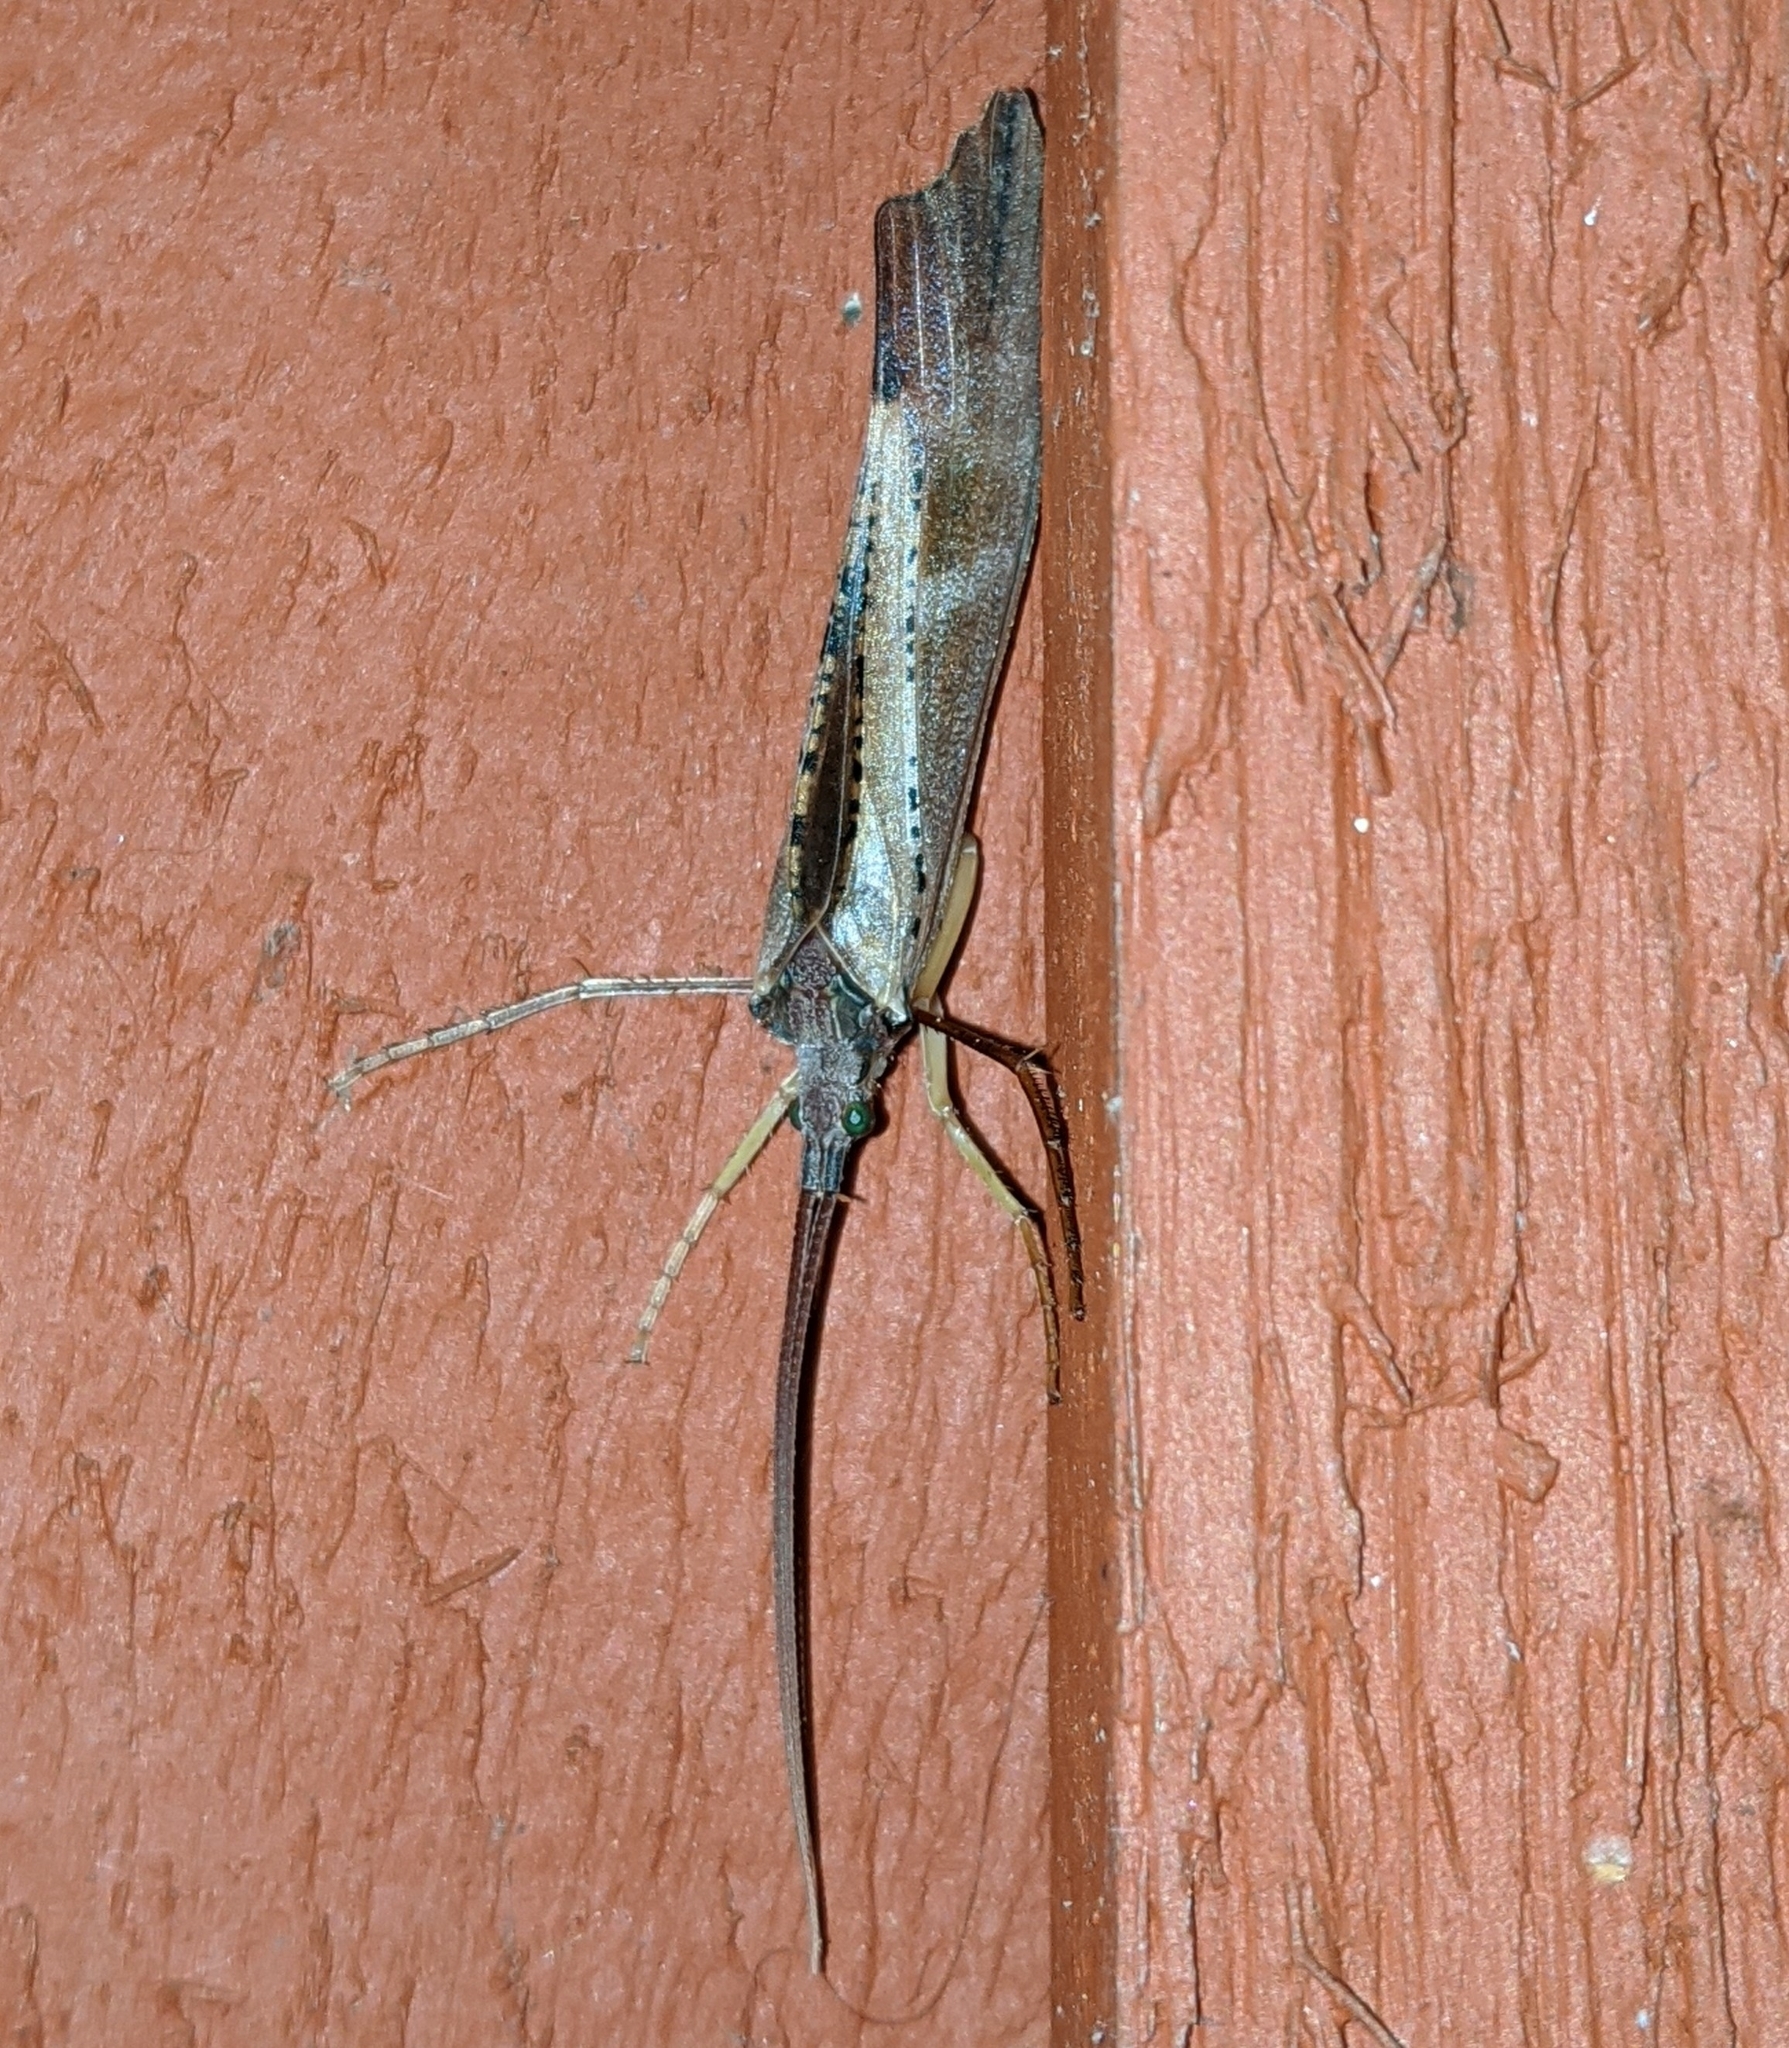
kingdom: Animalia
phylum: Arthropoda
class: Insecta
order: Trichoptera
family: Limnephilidae
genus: Nemotaulius
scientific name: Nemotaulius hostilis
